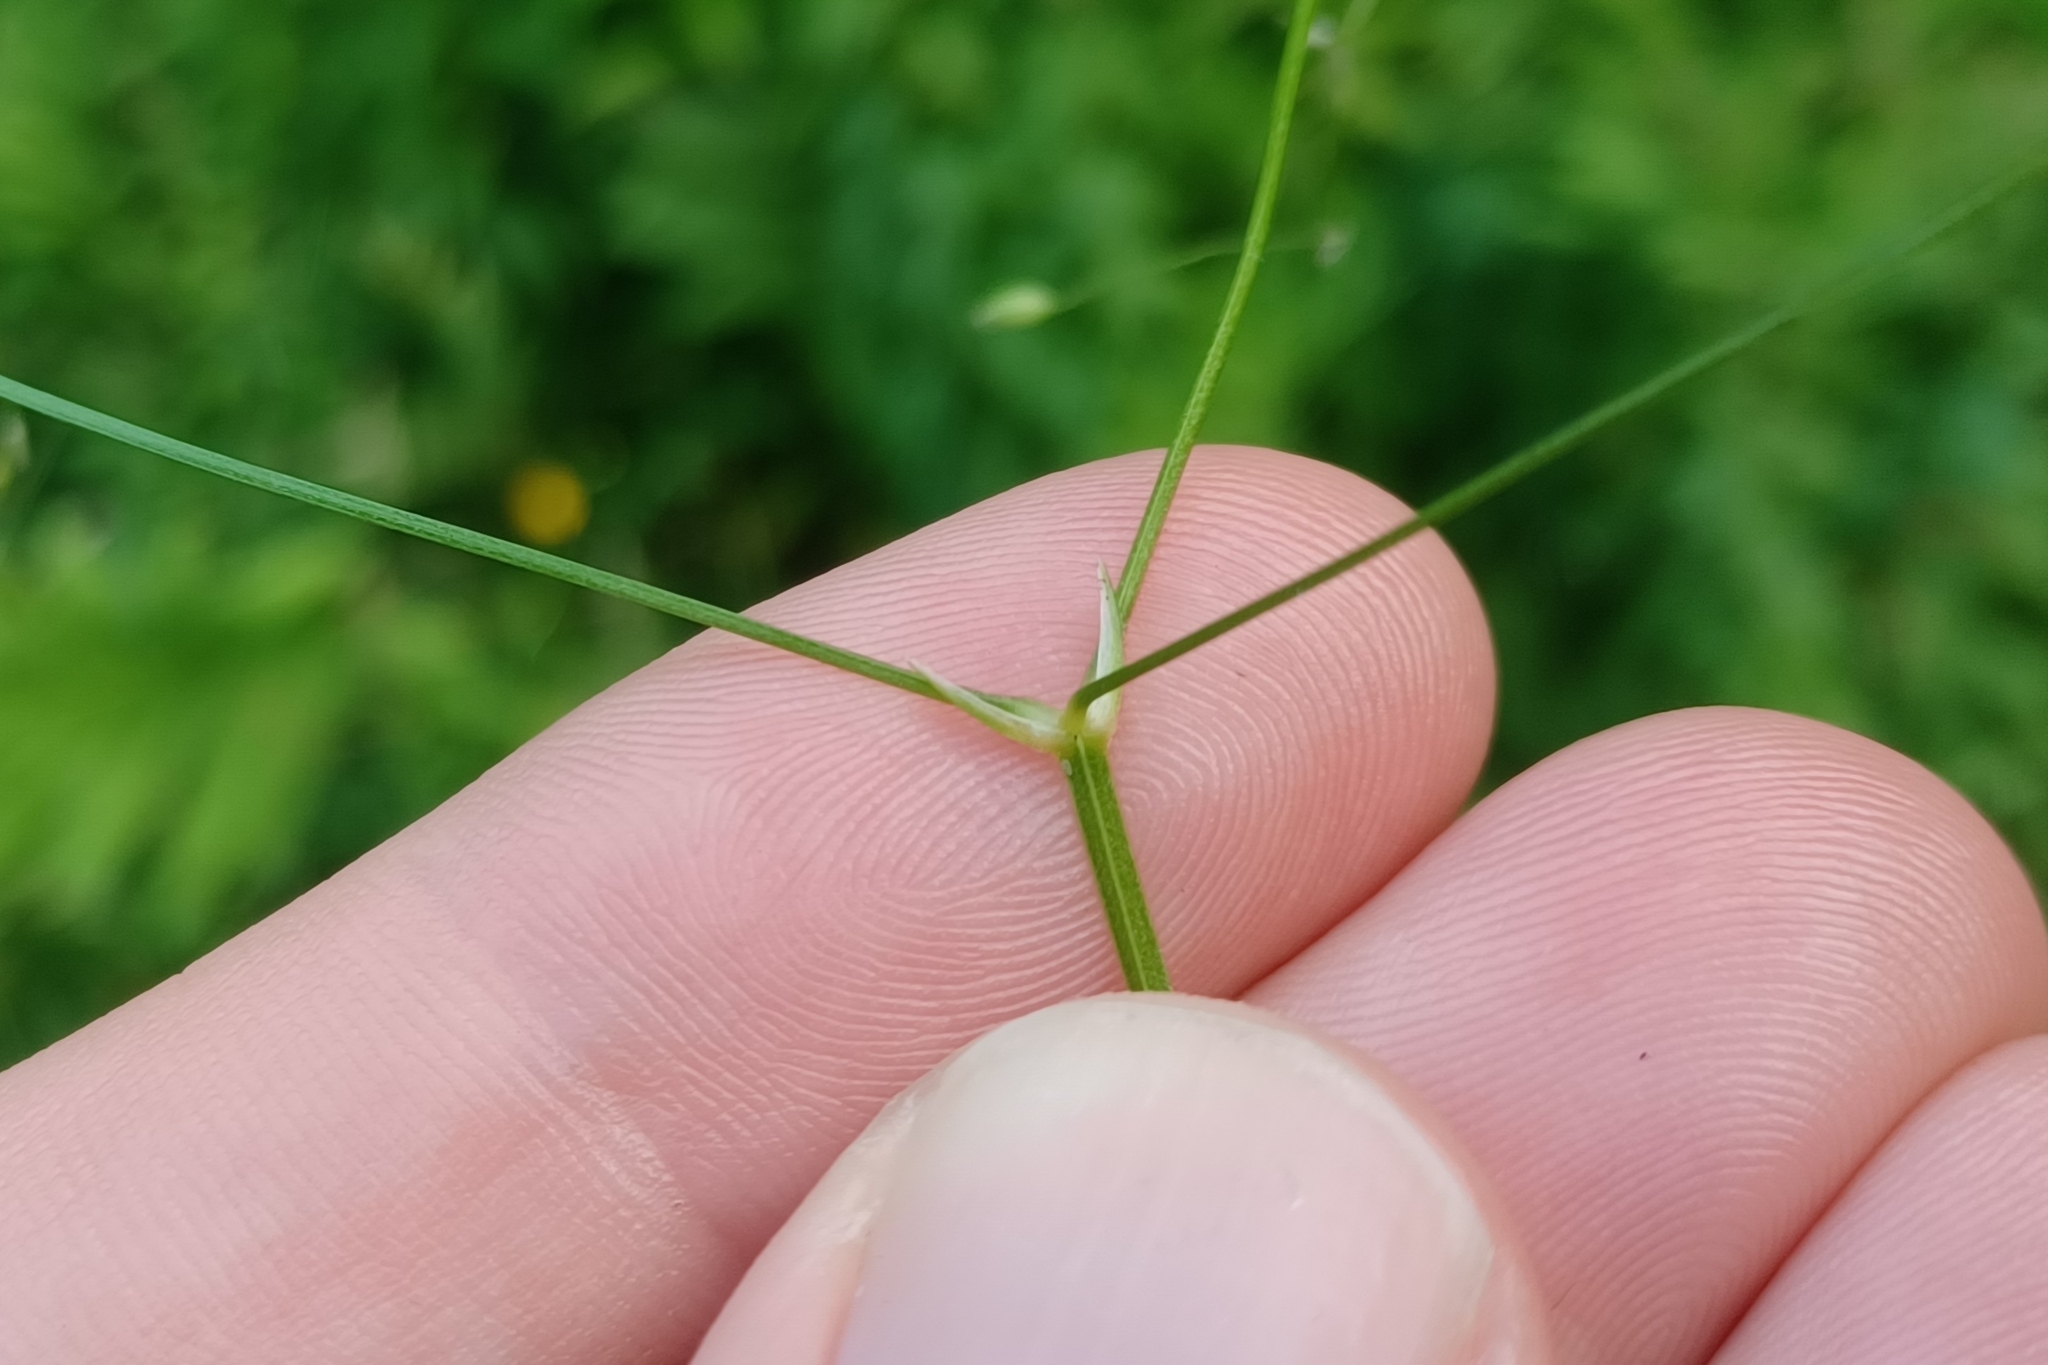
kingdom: Plantae
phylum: Tracheophyta
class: Magnoliopsida
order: Caryophyllales
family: Caryophyllaceae
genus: Stellaria
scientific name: Stellaria graminea
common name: Grass-like starwort
